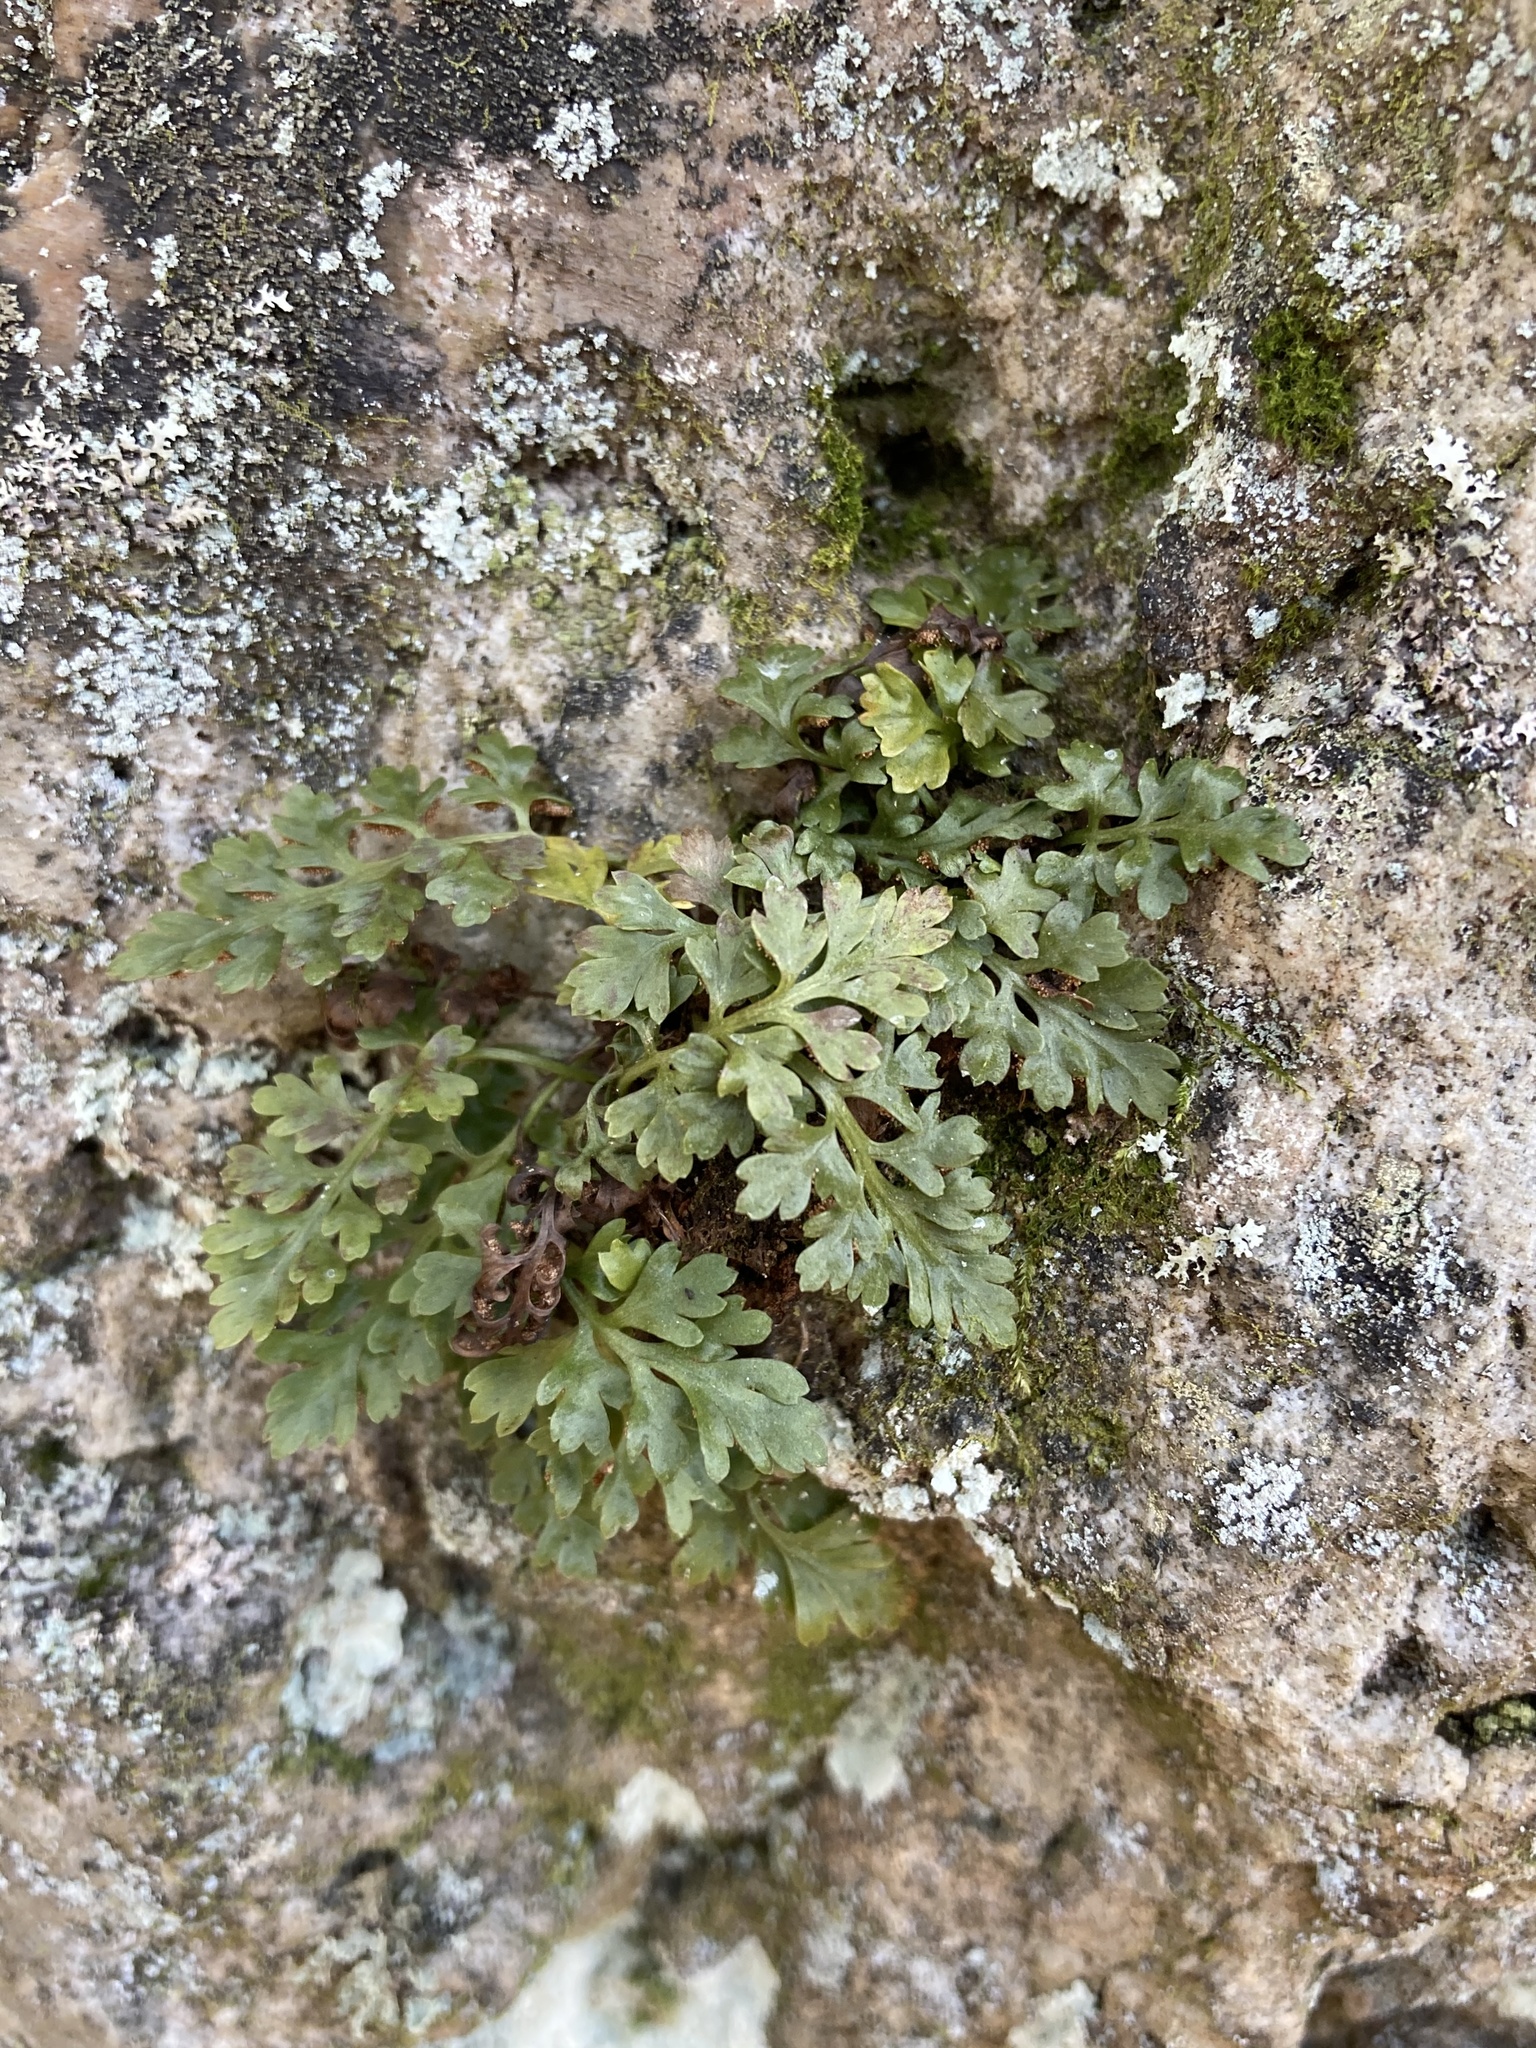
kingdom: Plantae
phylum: Tracheophyta
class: Polypodiopsida
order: Polypodiales
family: Aspleniaceae
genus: Asplenium
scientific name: Asplenium montanum
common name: Mountain spleenwort
